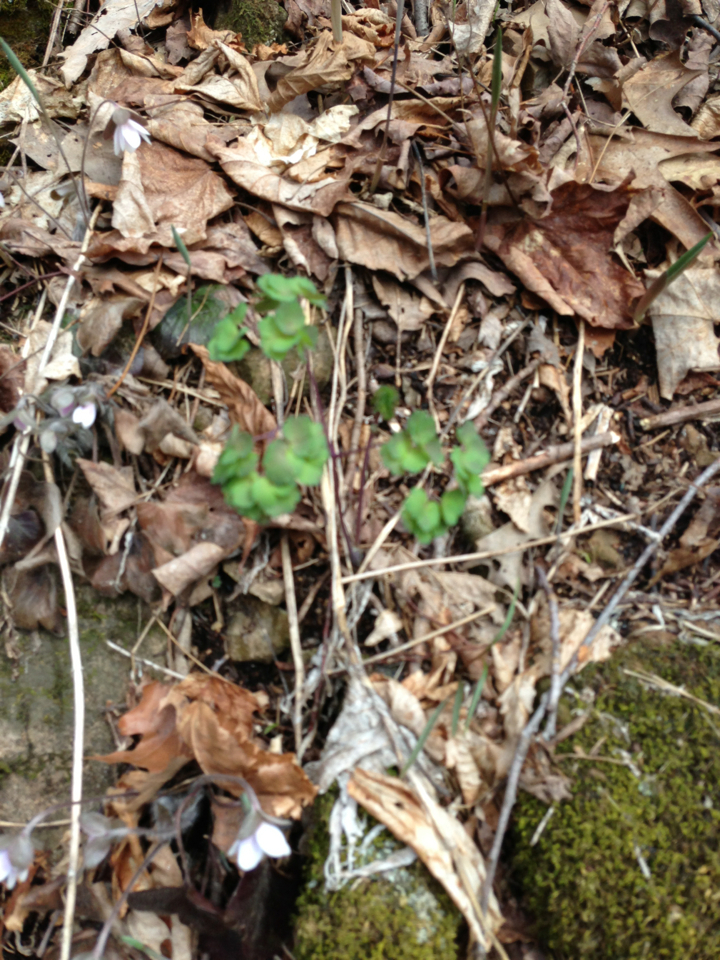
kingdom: Plantae
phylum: Tracheophyta
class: Magnoliopsida
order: Ranunculales
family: Ranunculaceae
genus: Thalictrum
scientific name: Thalictrum dioicum
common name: Early meadow-rue
